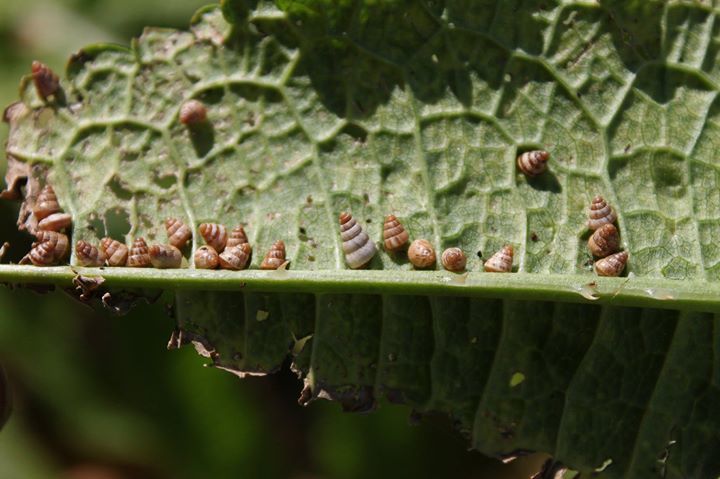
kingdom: Animalia
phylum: Mollusca
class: Gastropoda
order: Stylommatophora
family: Geomitridae
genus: Cochlicella
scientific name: Cochlicella barbara
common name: Potbellied helicellid
